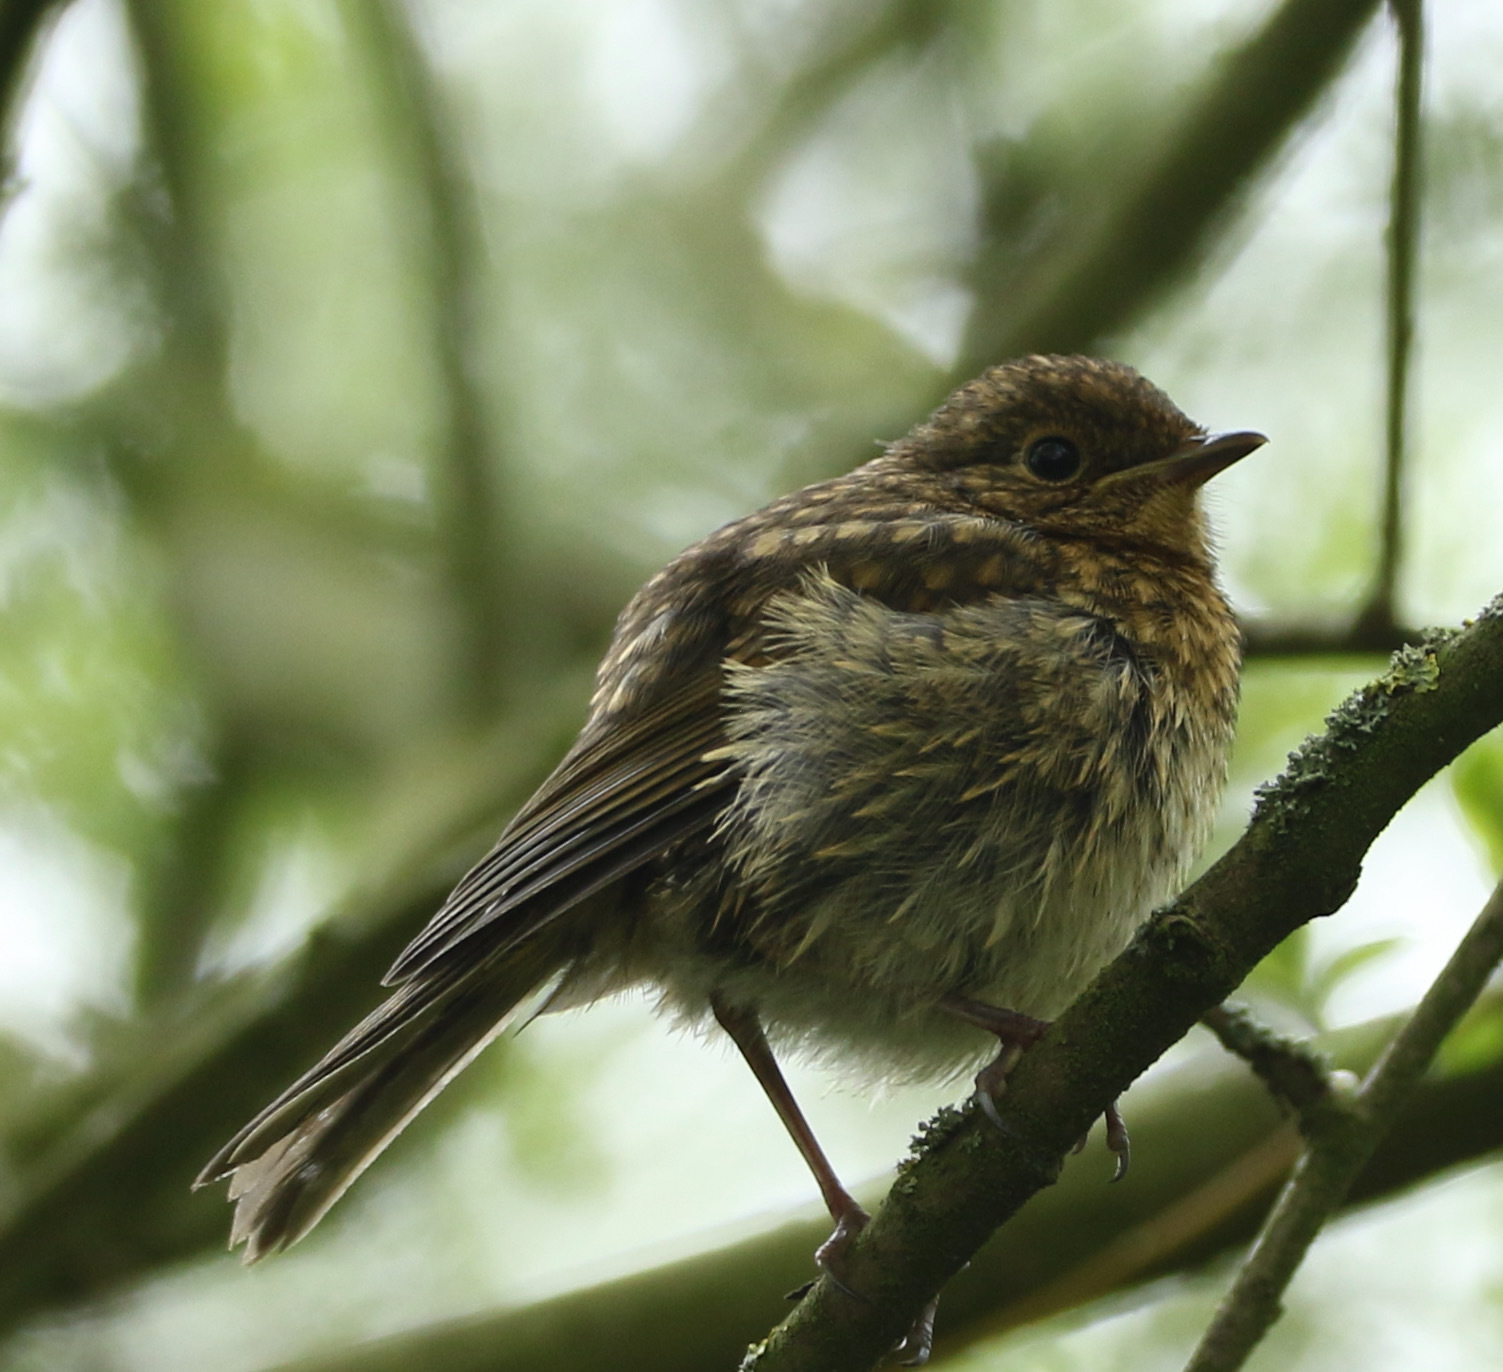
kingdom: Animalia
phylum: Chordata
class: Aves
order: Passeriformes
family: Muscicapidae
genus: Erithacus
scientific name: Erithacus rubecula
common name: European robin
